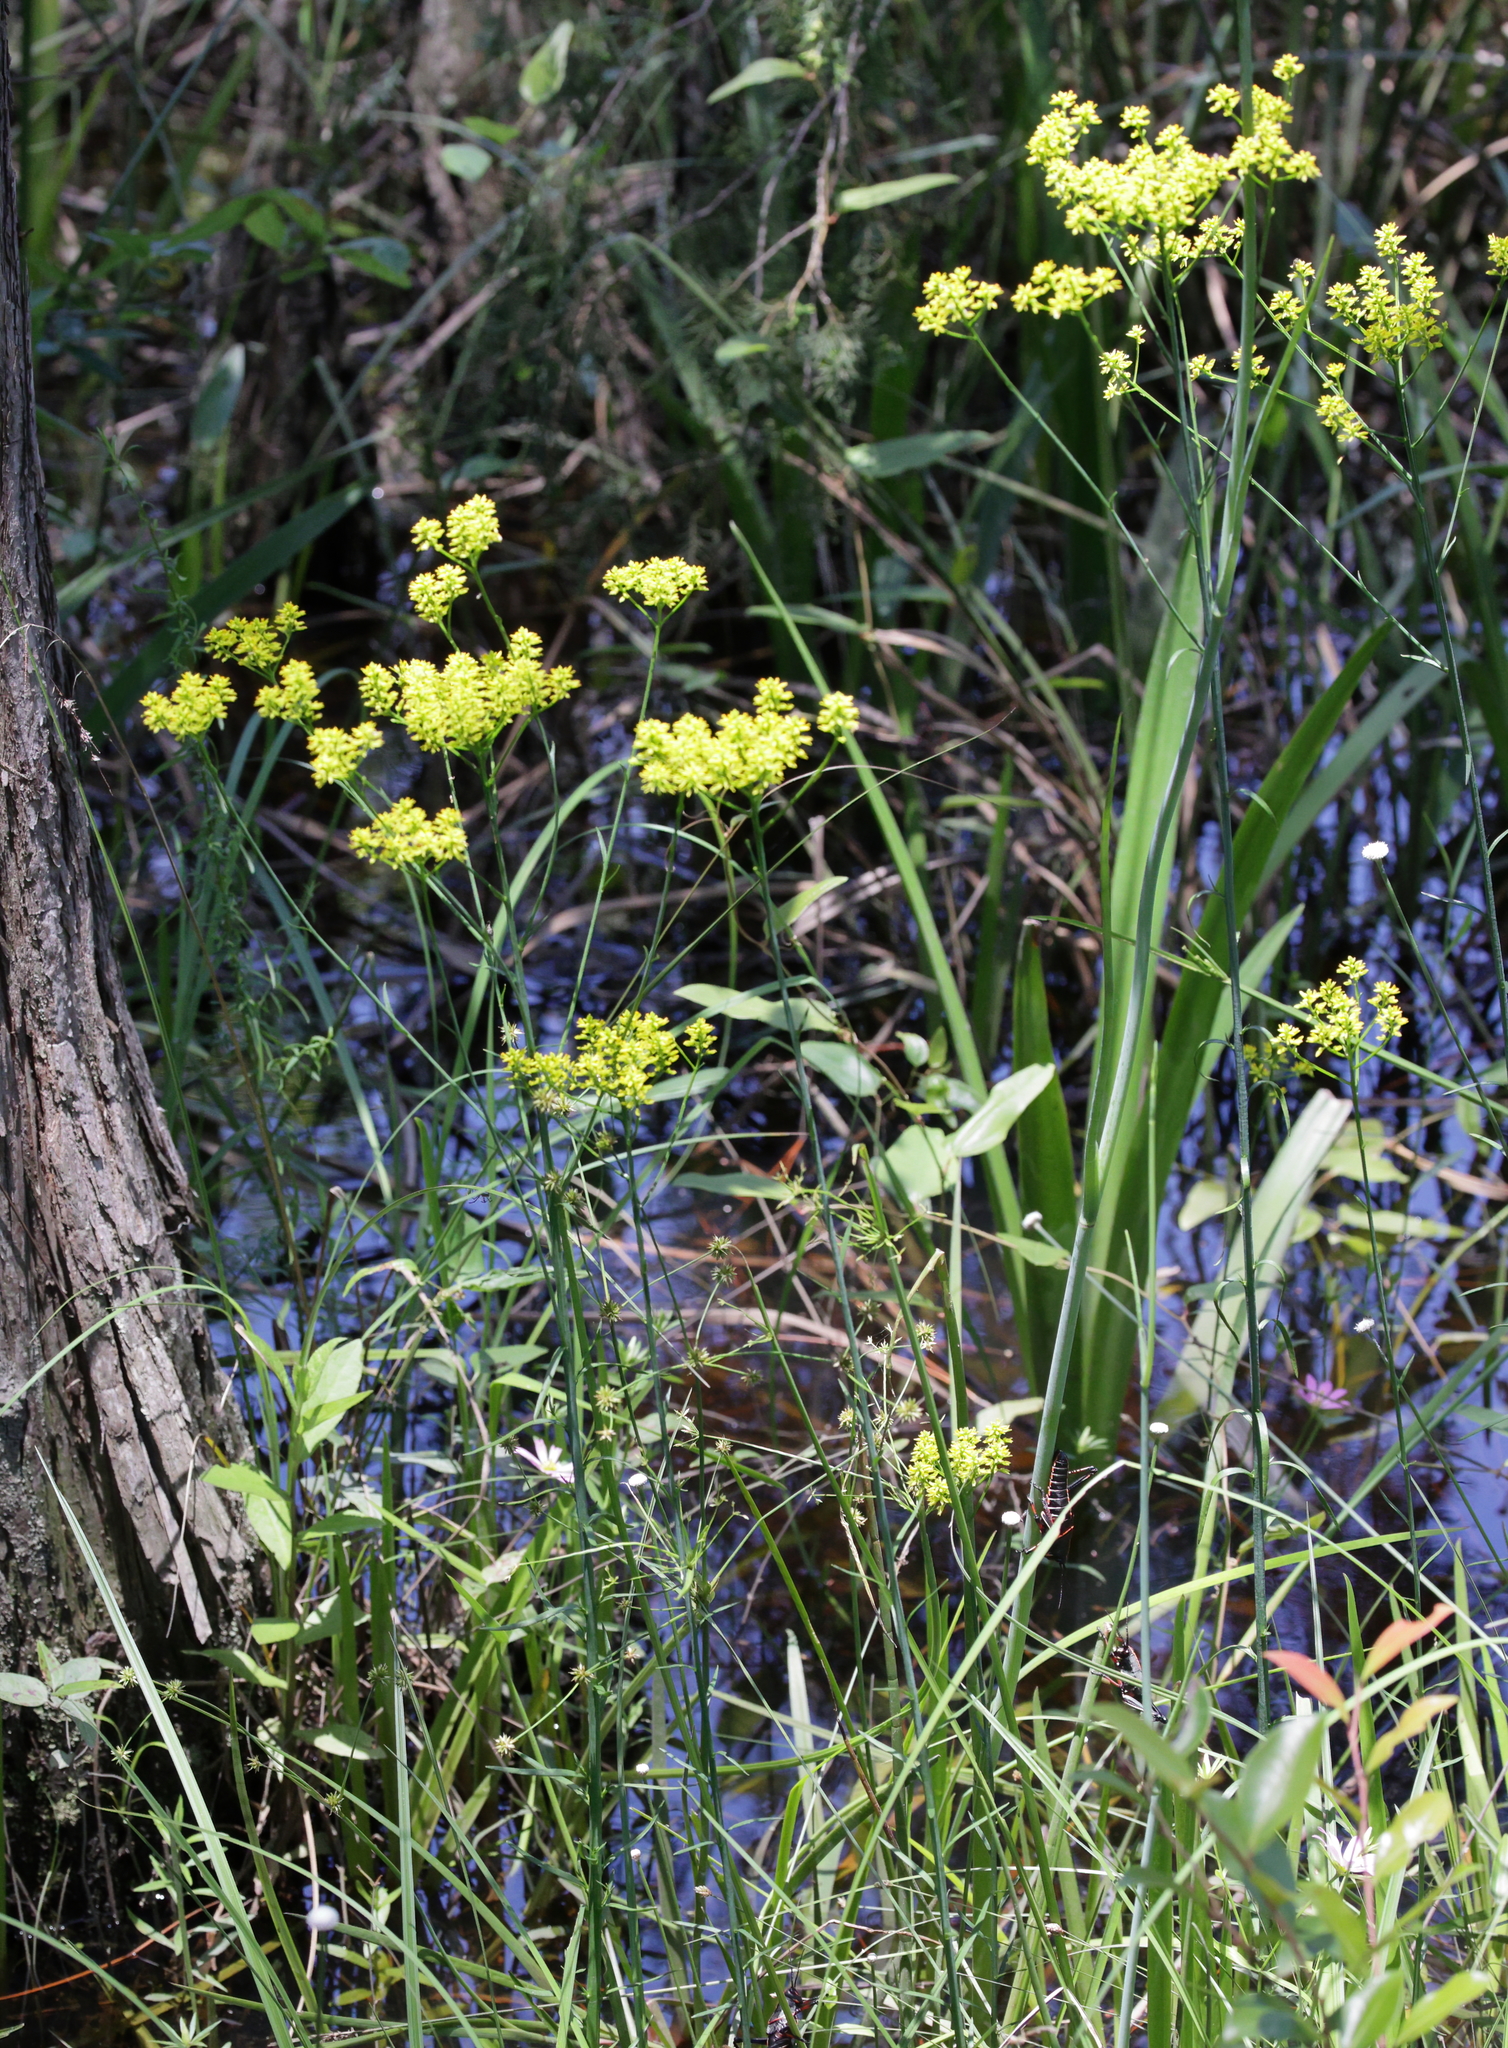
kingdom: Plantae
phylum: Tracheophyta
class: Magnoliopsida
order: Fabales
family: Polygalaceae
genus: Polygala
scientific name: Polygala cymosa
